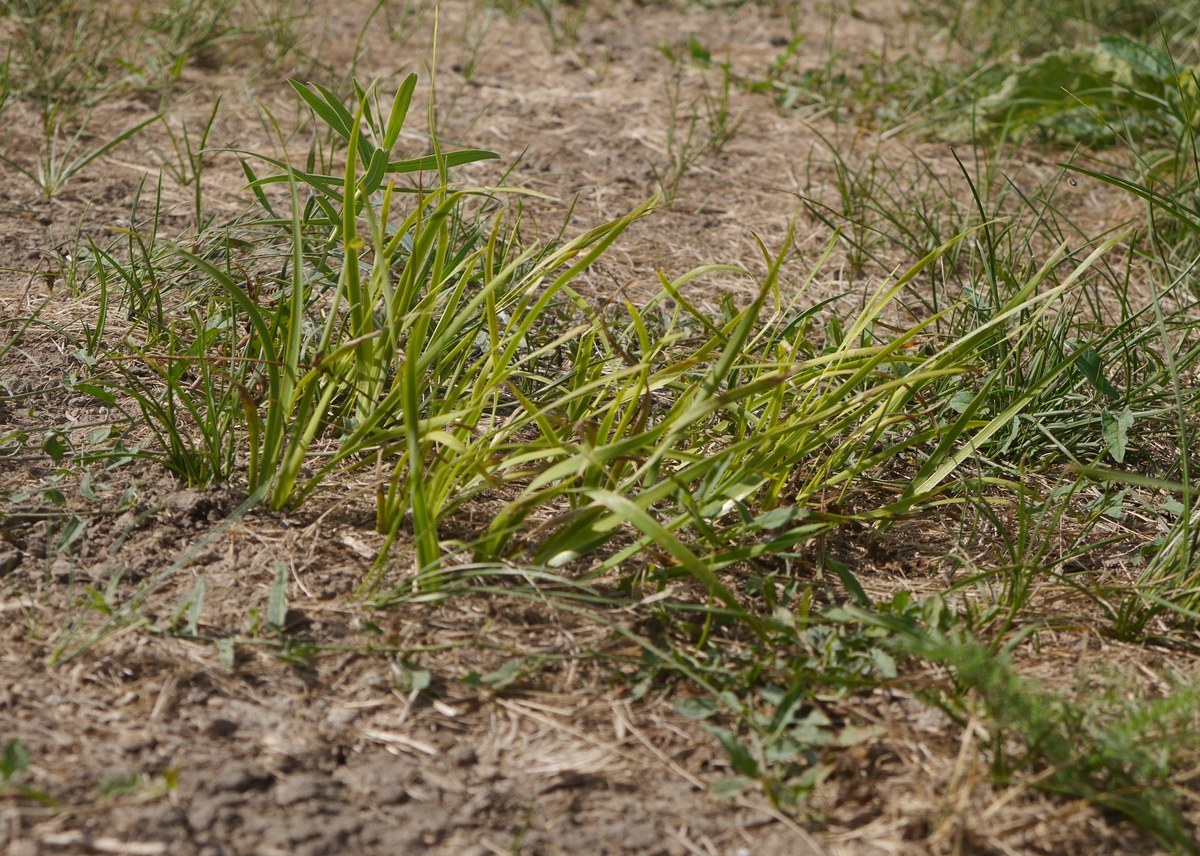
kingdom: Plantae
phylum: Tracheophyta
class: Liliopsida
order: Asparagales
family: Iridaceae
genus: Iris
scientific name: Iris pontica
